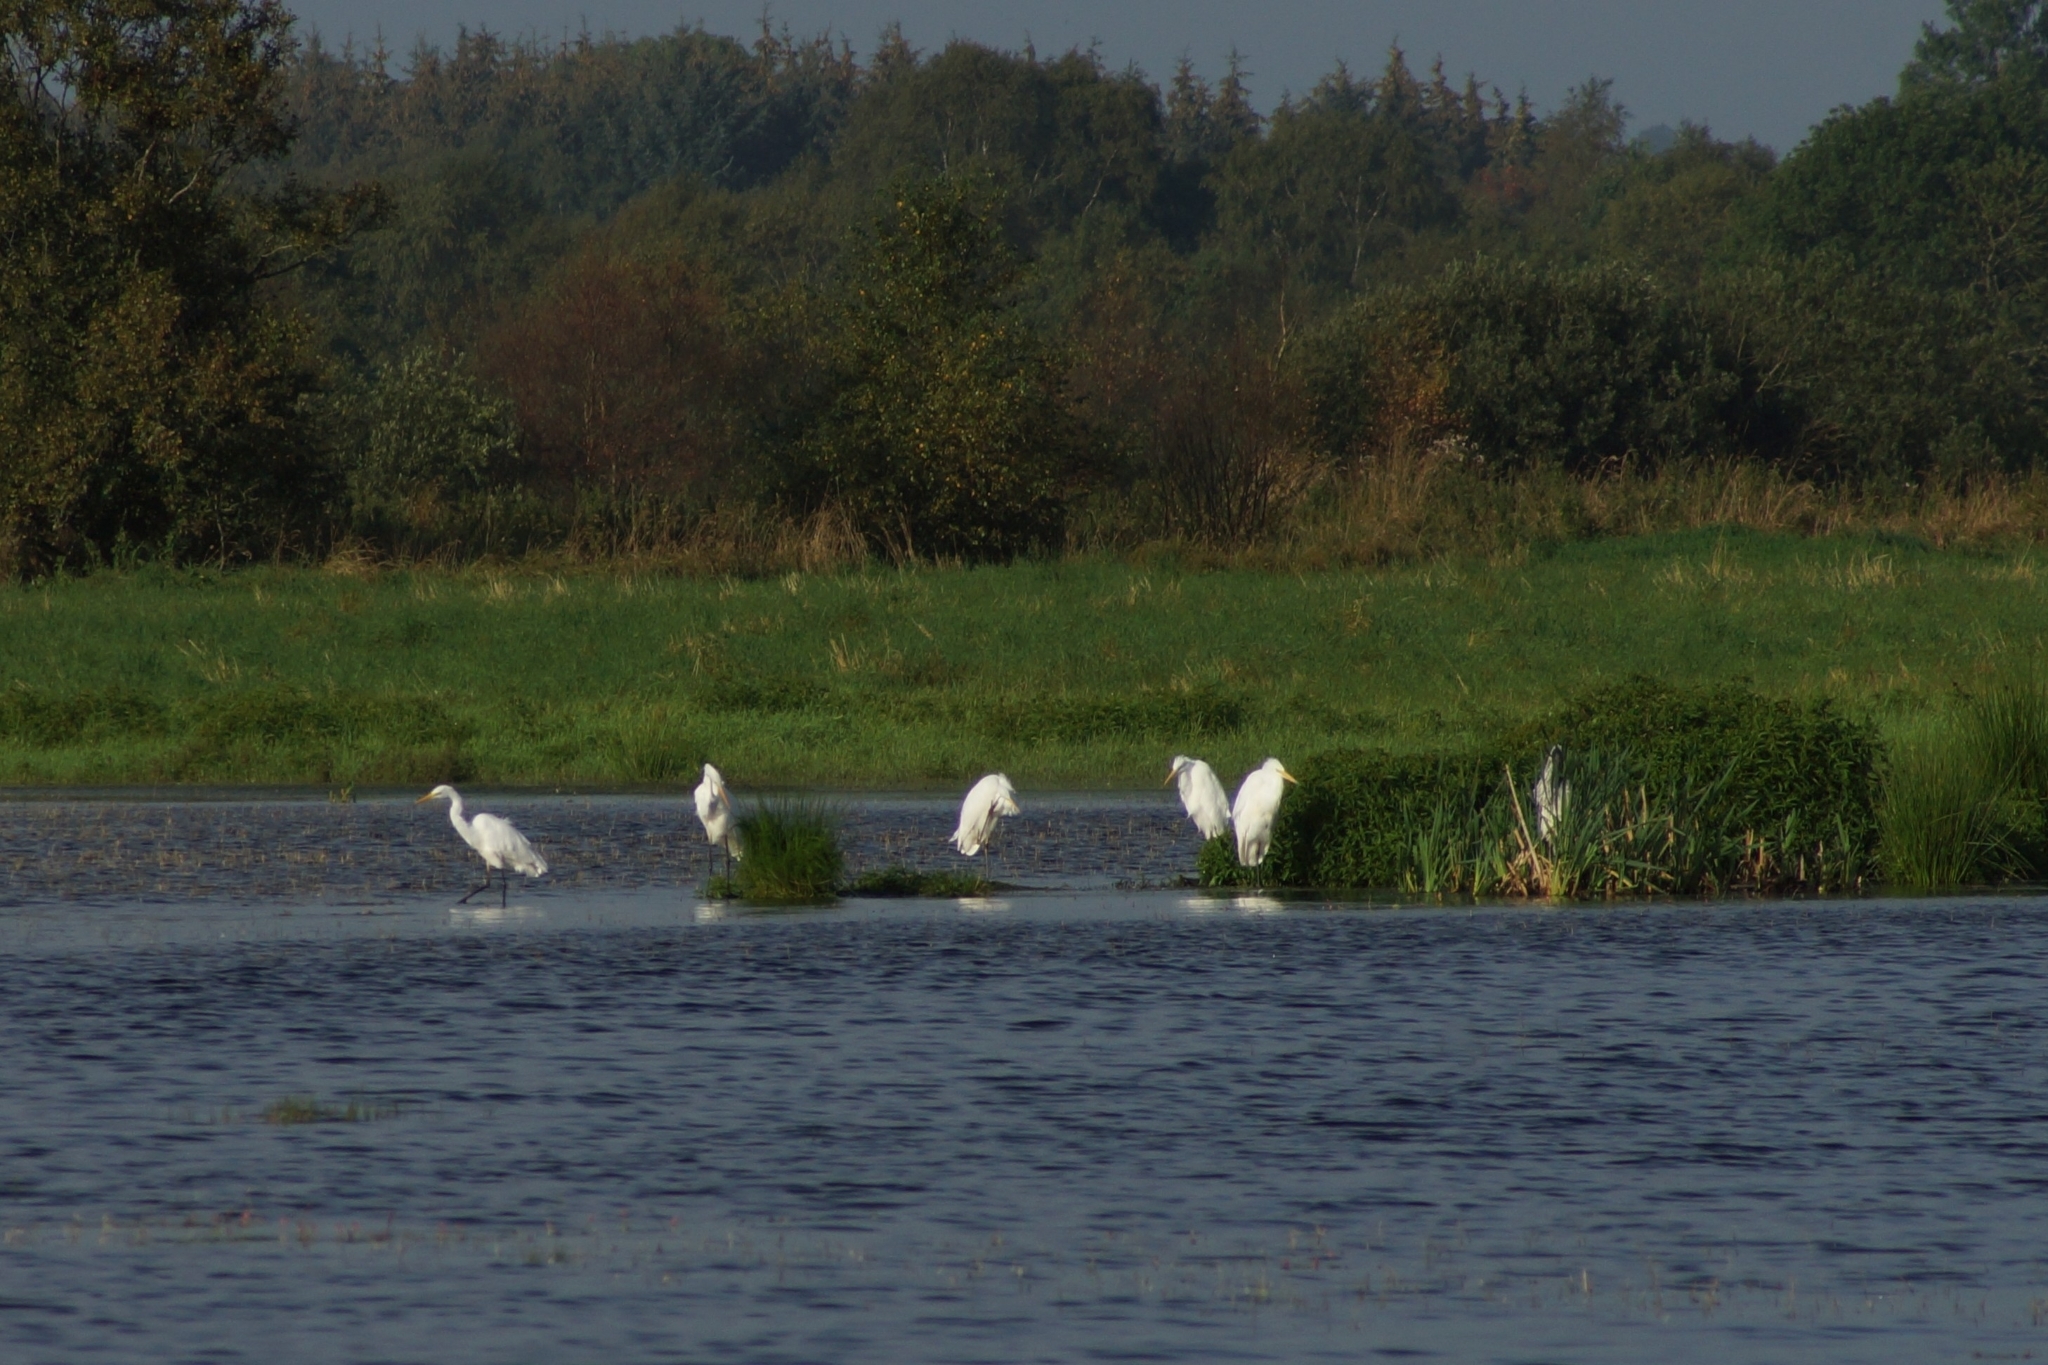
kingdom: Animalia
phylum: Chordata
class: Aves
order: Pelecaniformes
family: Ardeidae
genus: Ardea
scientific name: Ardea alba
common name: Great egret
